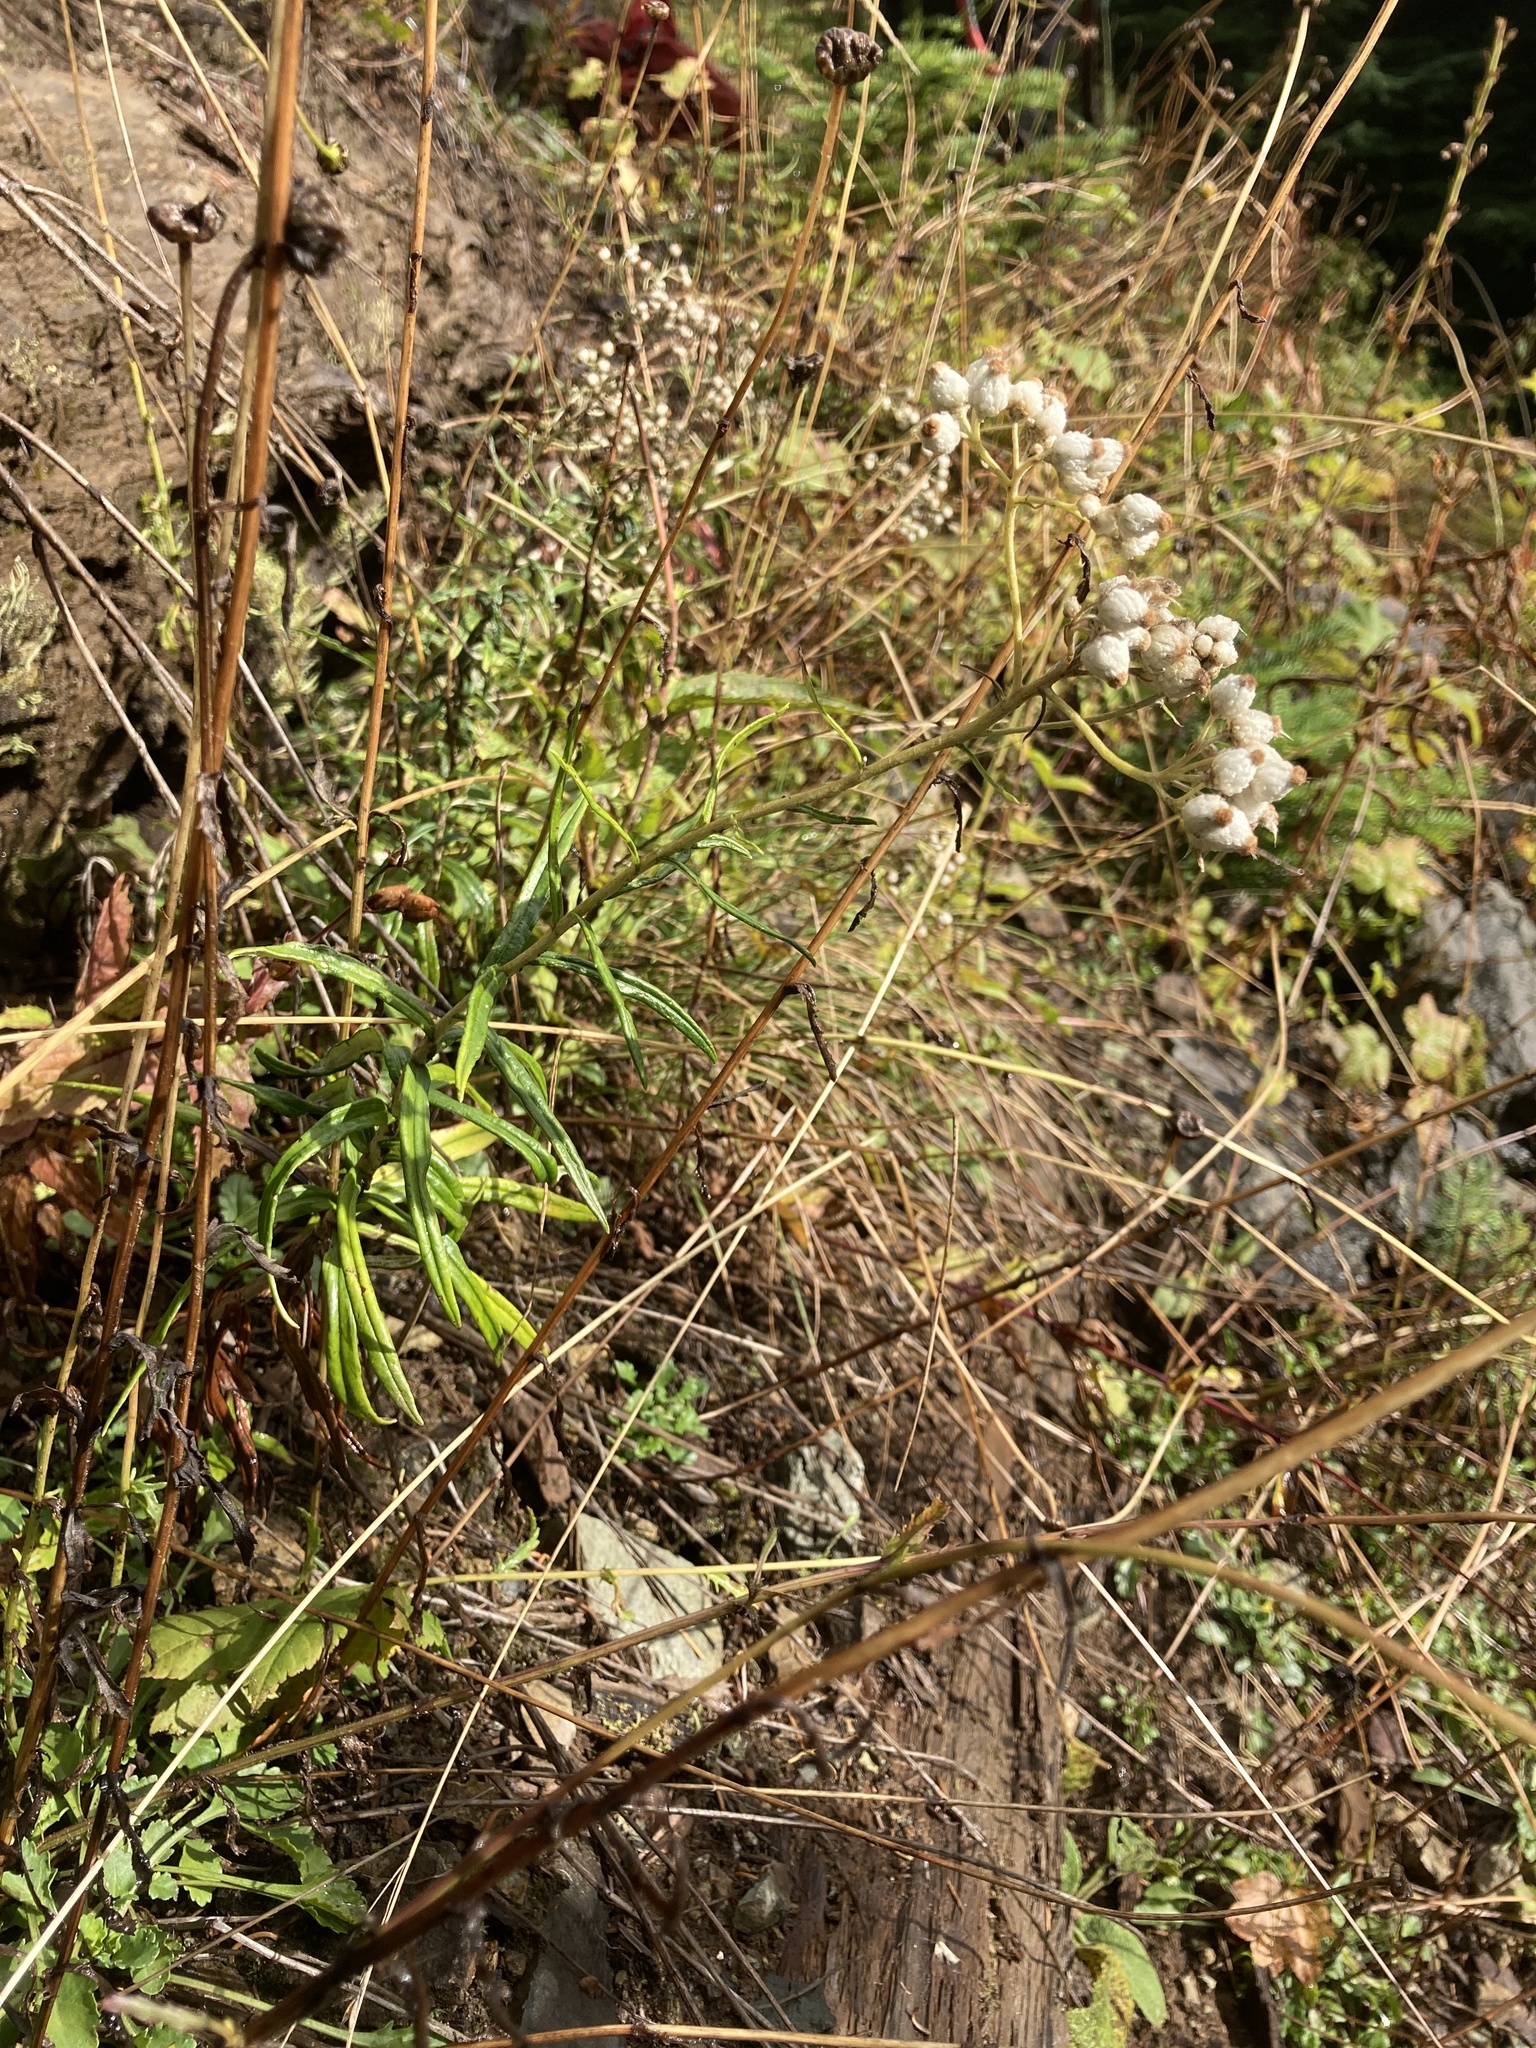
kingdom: Plantae
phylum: Tracheophyta
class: Magnoliopsida
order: Asterales
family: Asteraceae
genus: Anaphalis
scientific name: Anaphalis margaritacea
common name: Pearly everlasting
